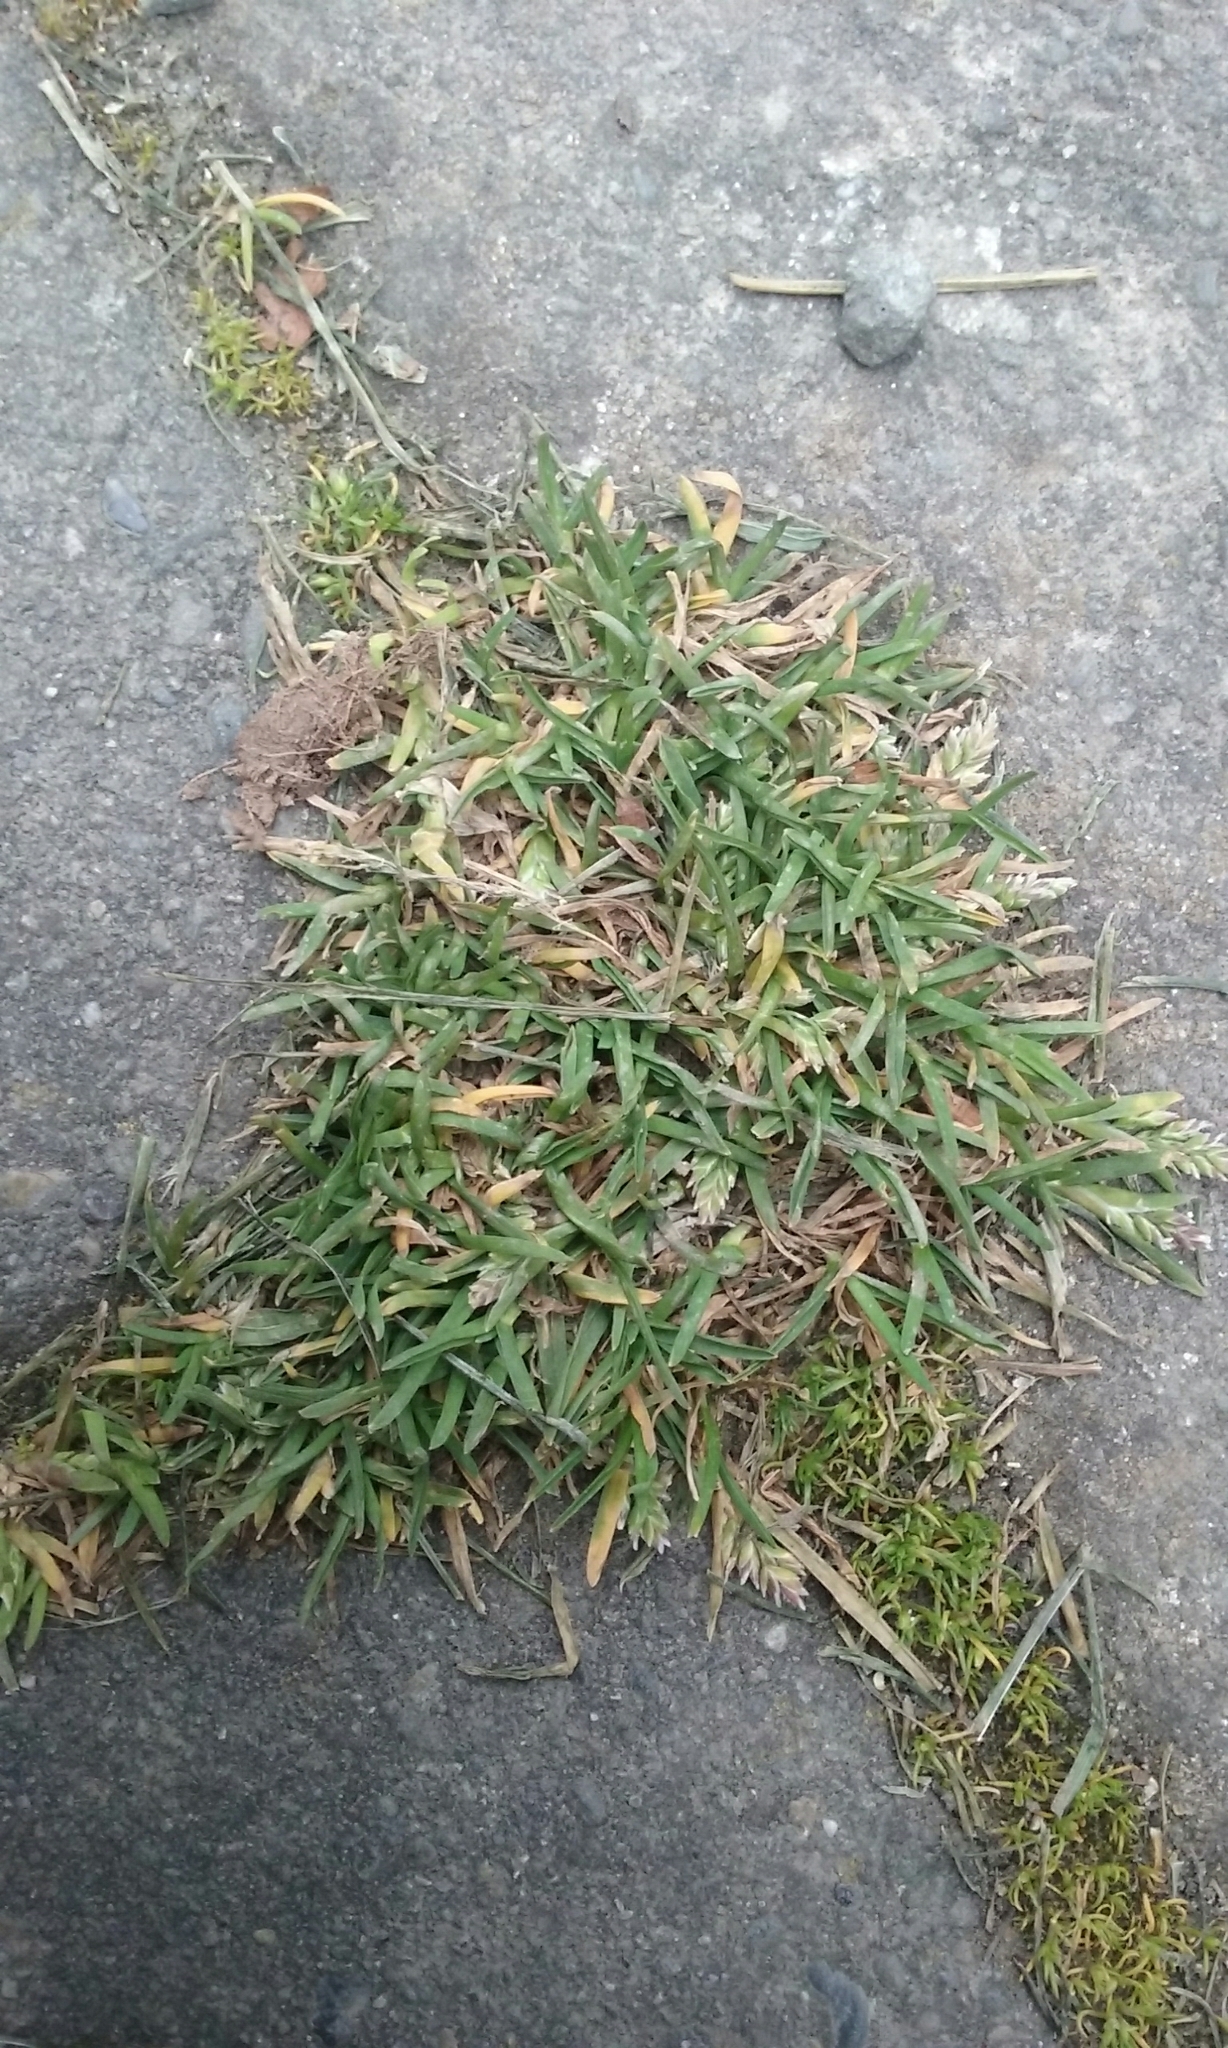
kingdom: Plantae
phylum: Tracheophyta
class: Liliopsida
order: Poales
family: Poaceae
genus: Poa
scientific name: Poa annua
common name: Annual bluegrass
